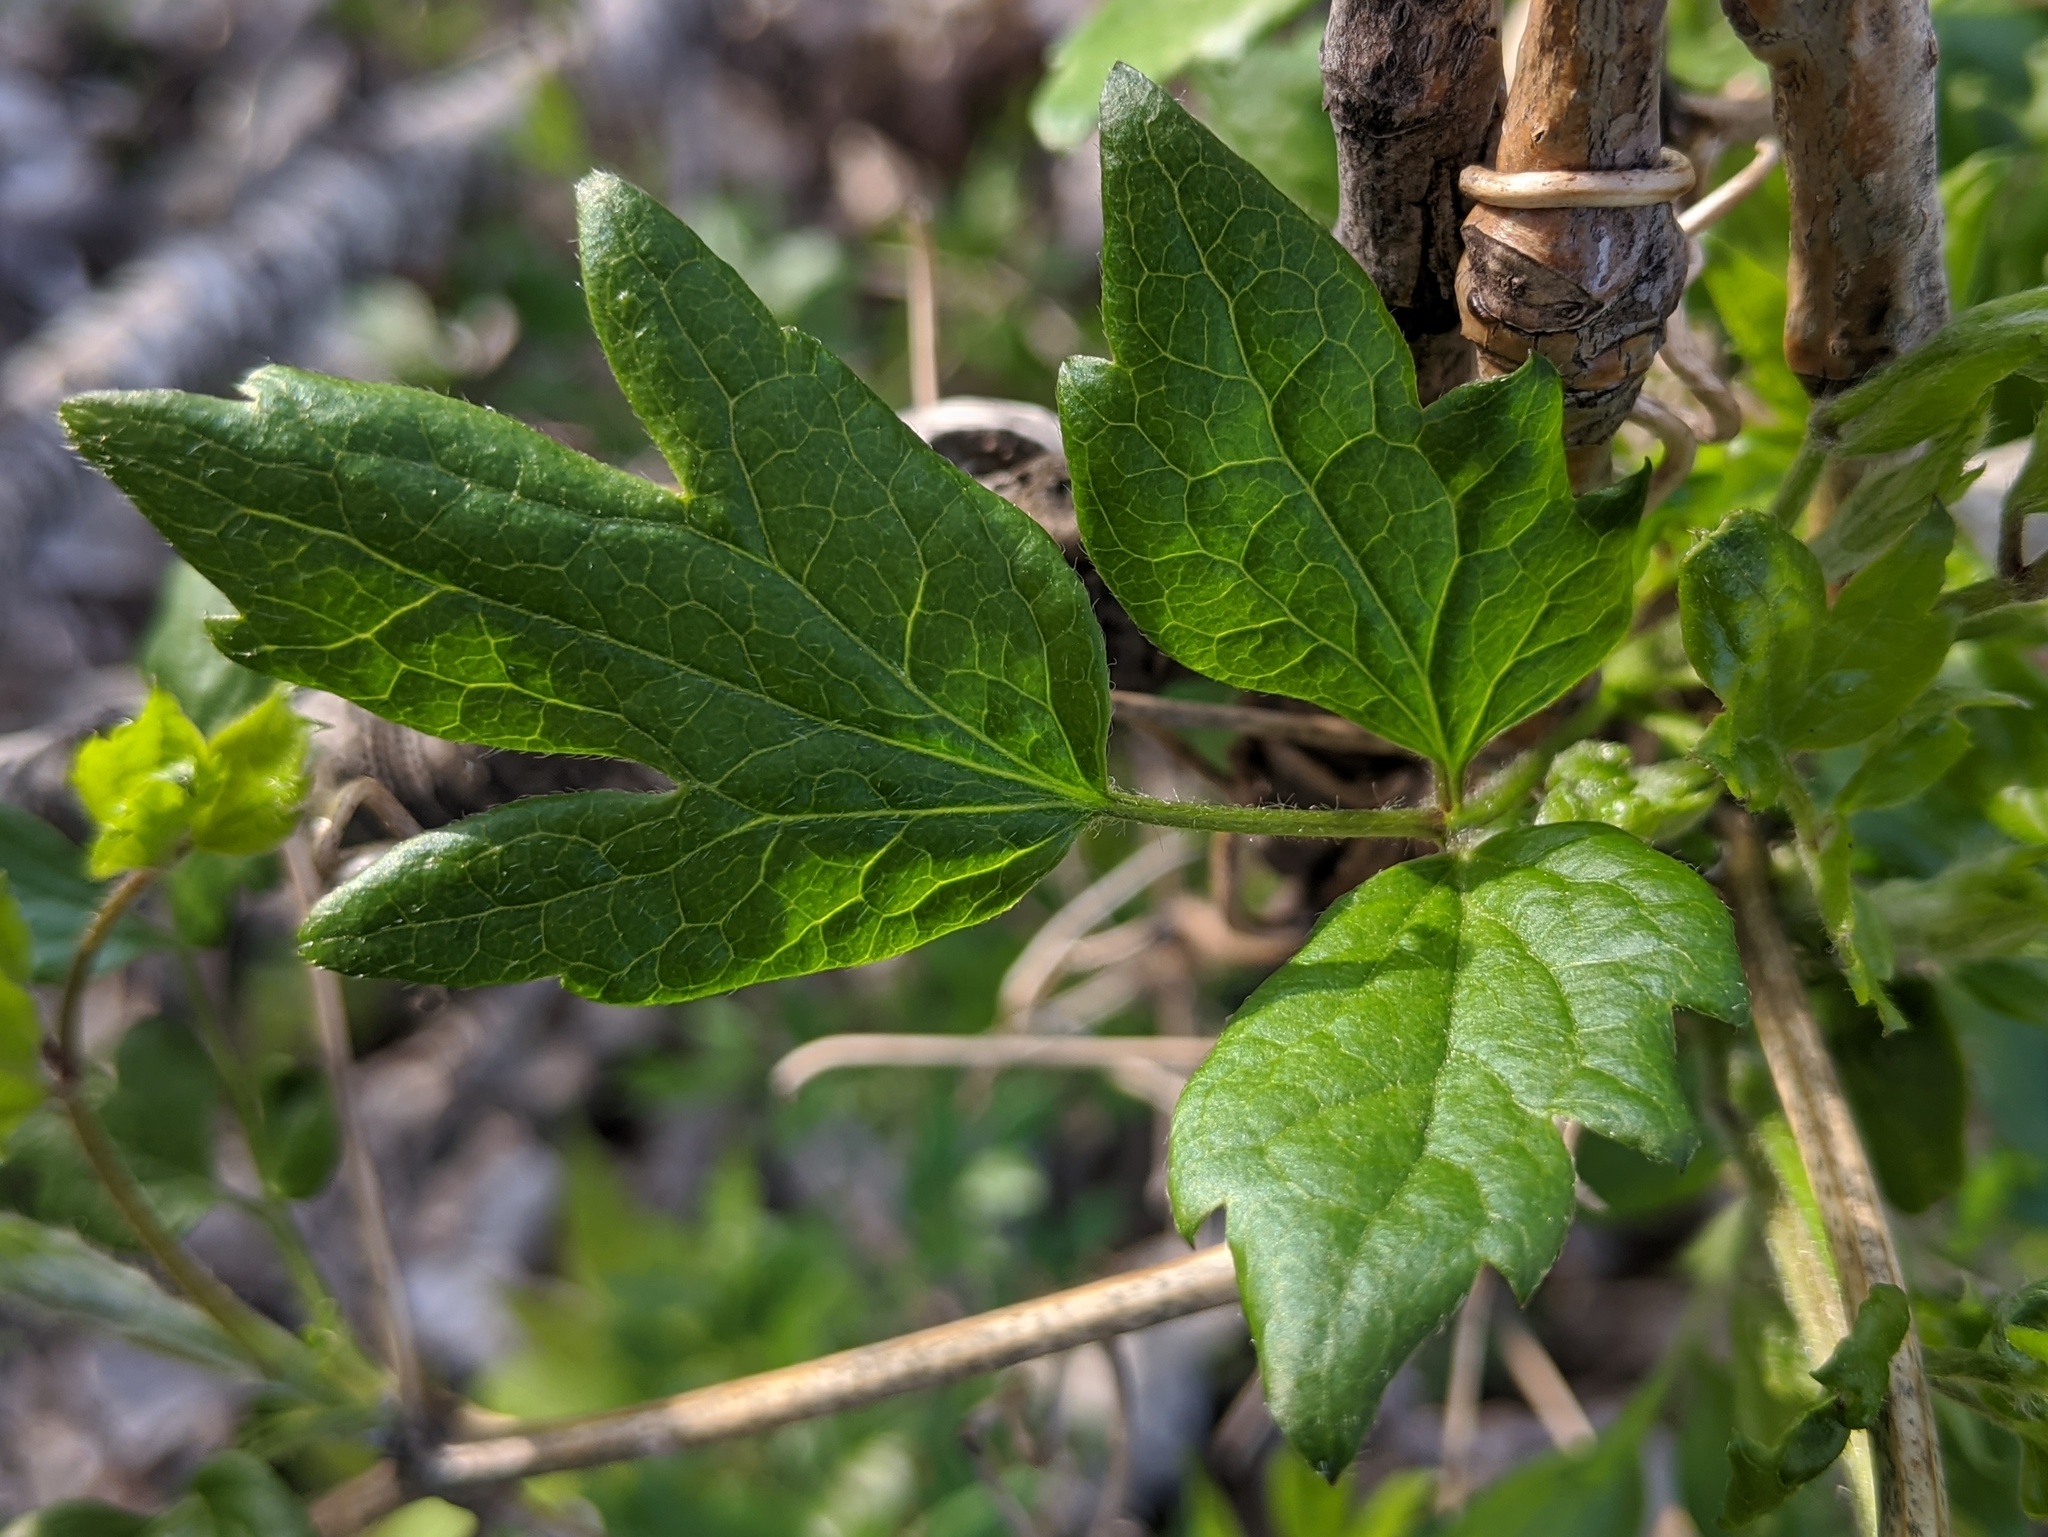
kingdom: Plantae
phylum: Tracheophyta
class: Magnoliopsida
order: Ranunculales
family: Ranunculaceae
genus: Clematis
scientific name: Clematis virginiana
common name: Virgin's-bower
